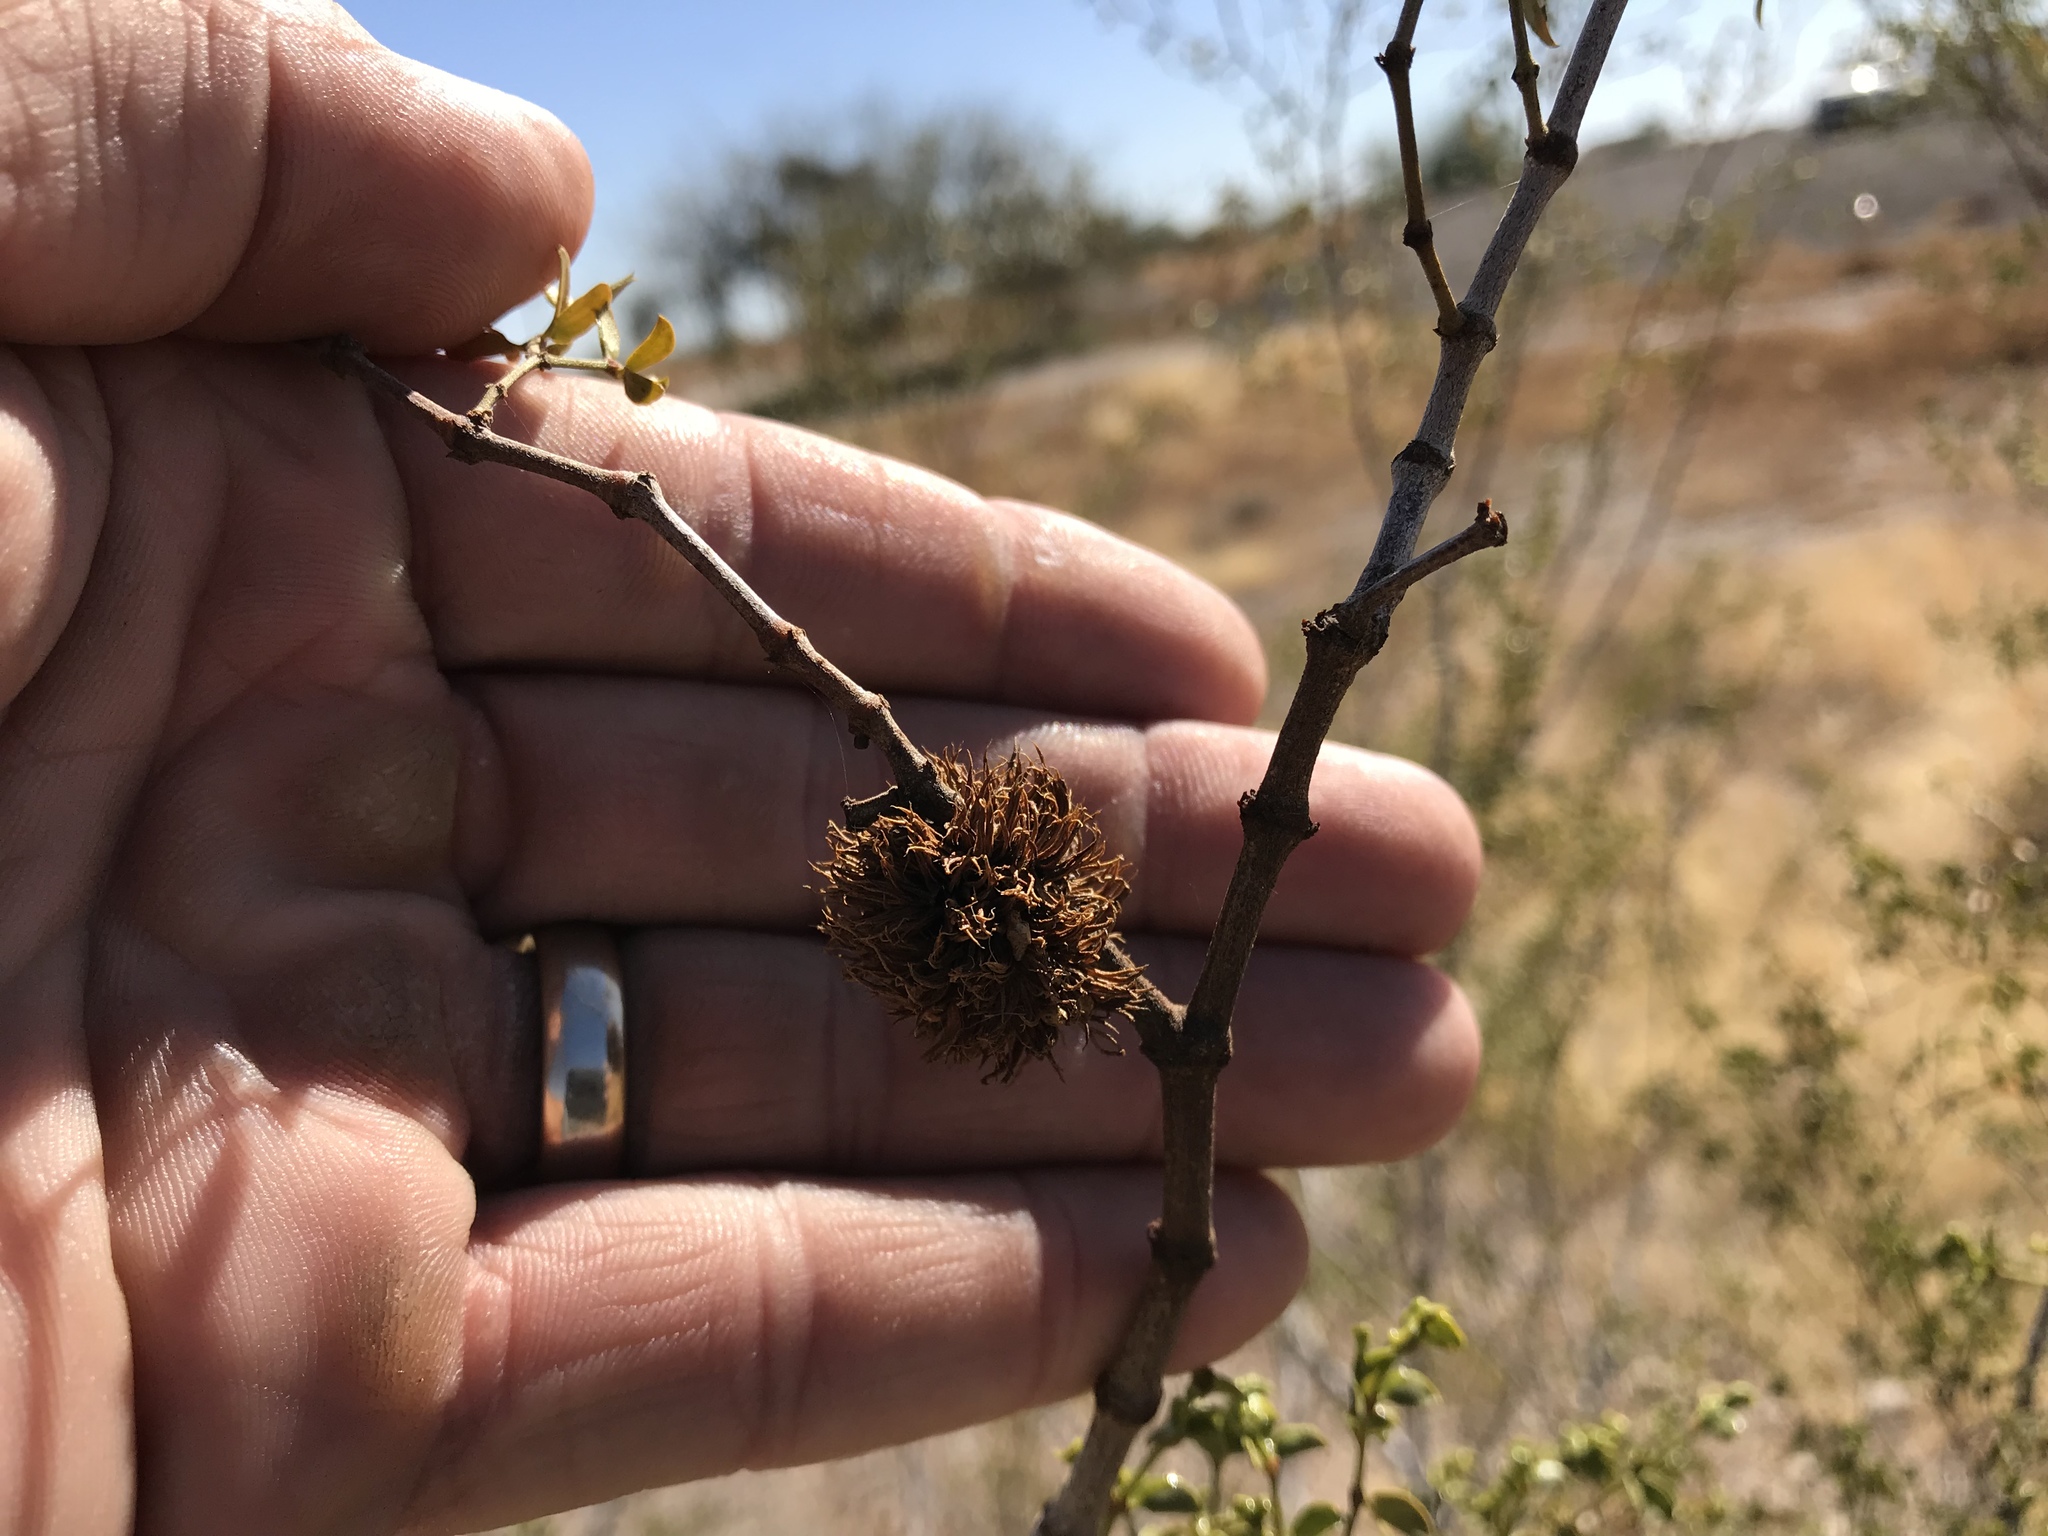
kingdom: Animalia
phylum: Arthropoda
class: Insecta
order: Diptera
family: Cecidomyiidae
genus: Asphondylia
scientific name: Asphondylia auripila
